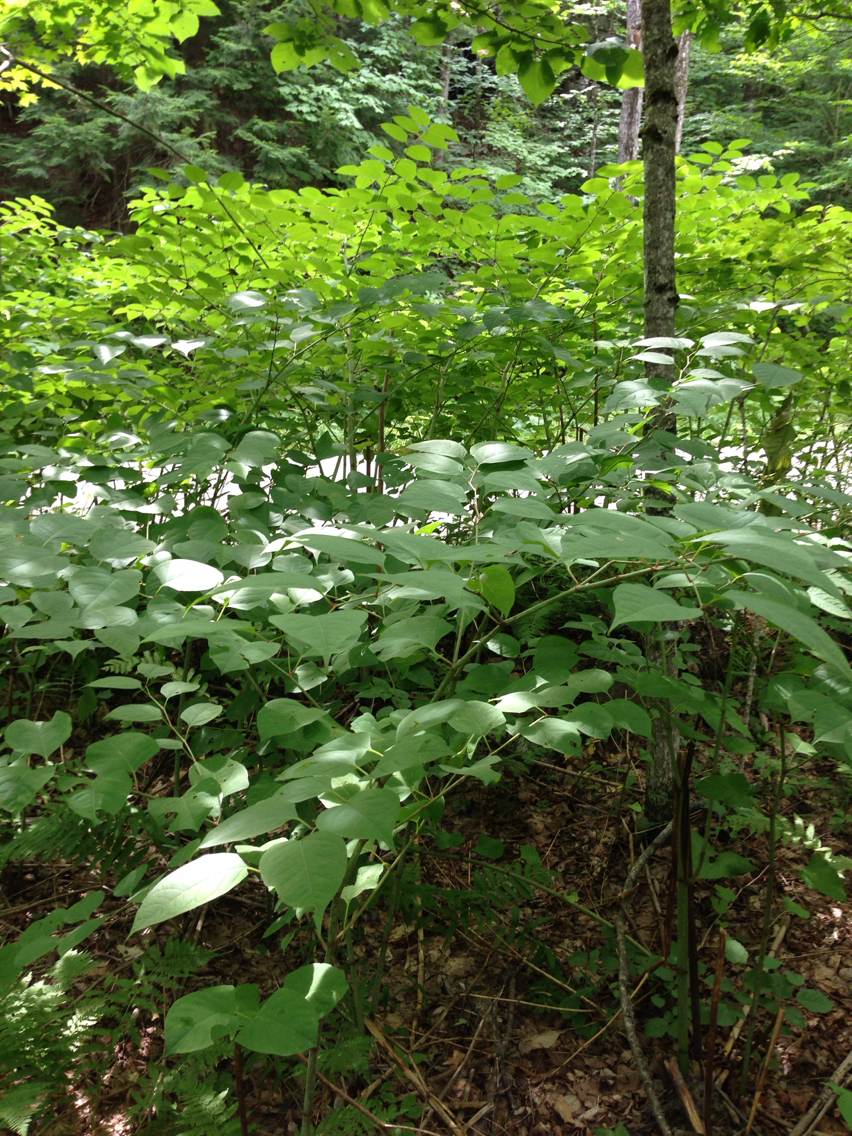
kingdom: Plantae
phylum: Tracheophyta
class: Magnoliopsida
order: Caryophyllales
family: Polygonaceae
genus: Reynoutria
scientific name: Reynoutria japonica
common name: Japanese knotweed
